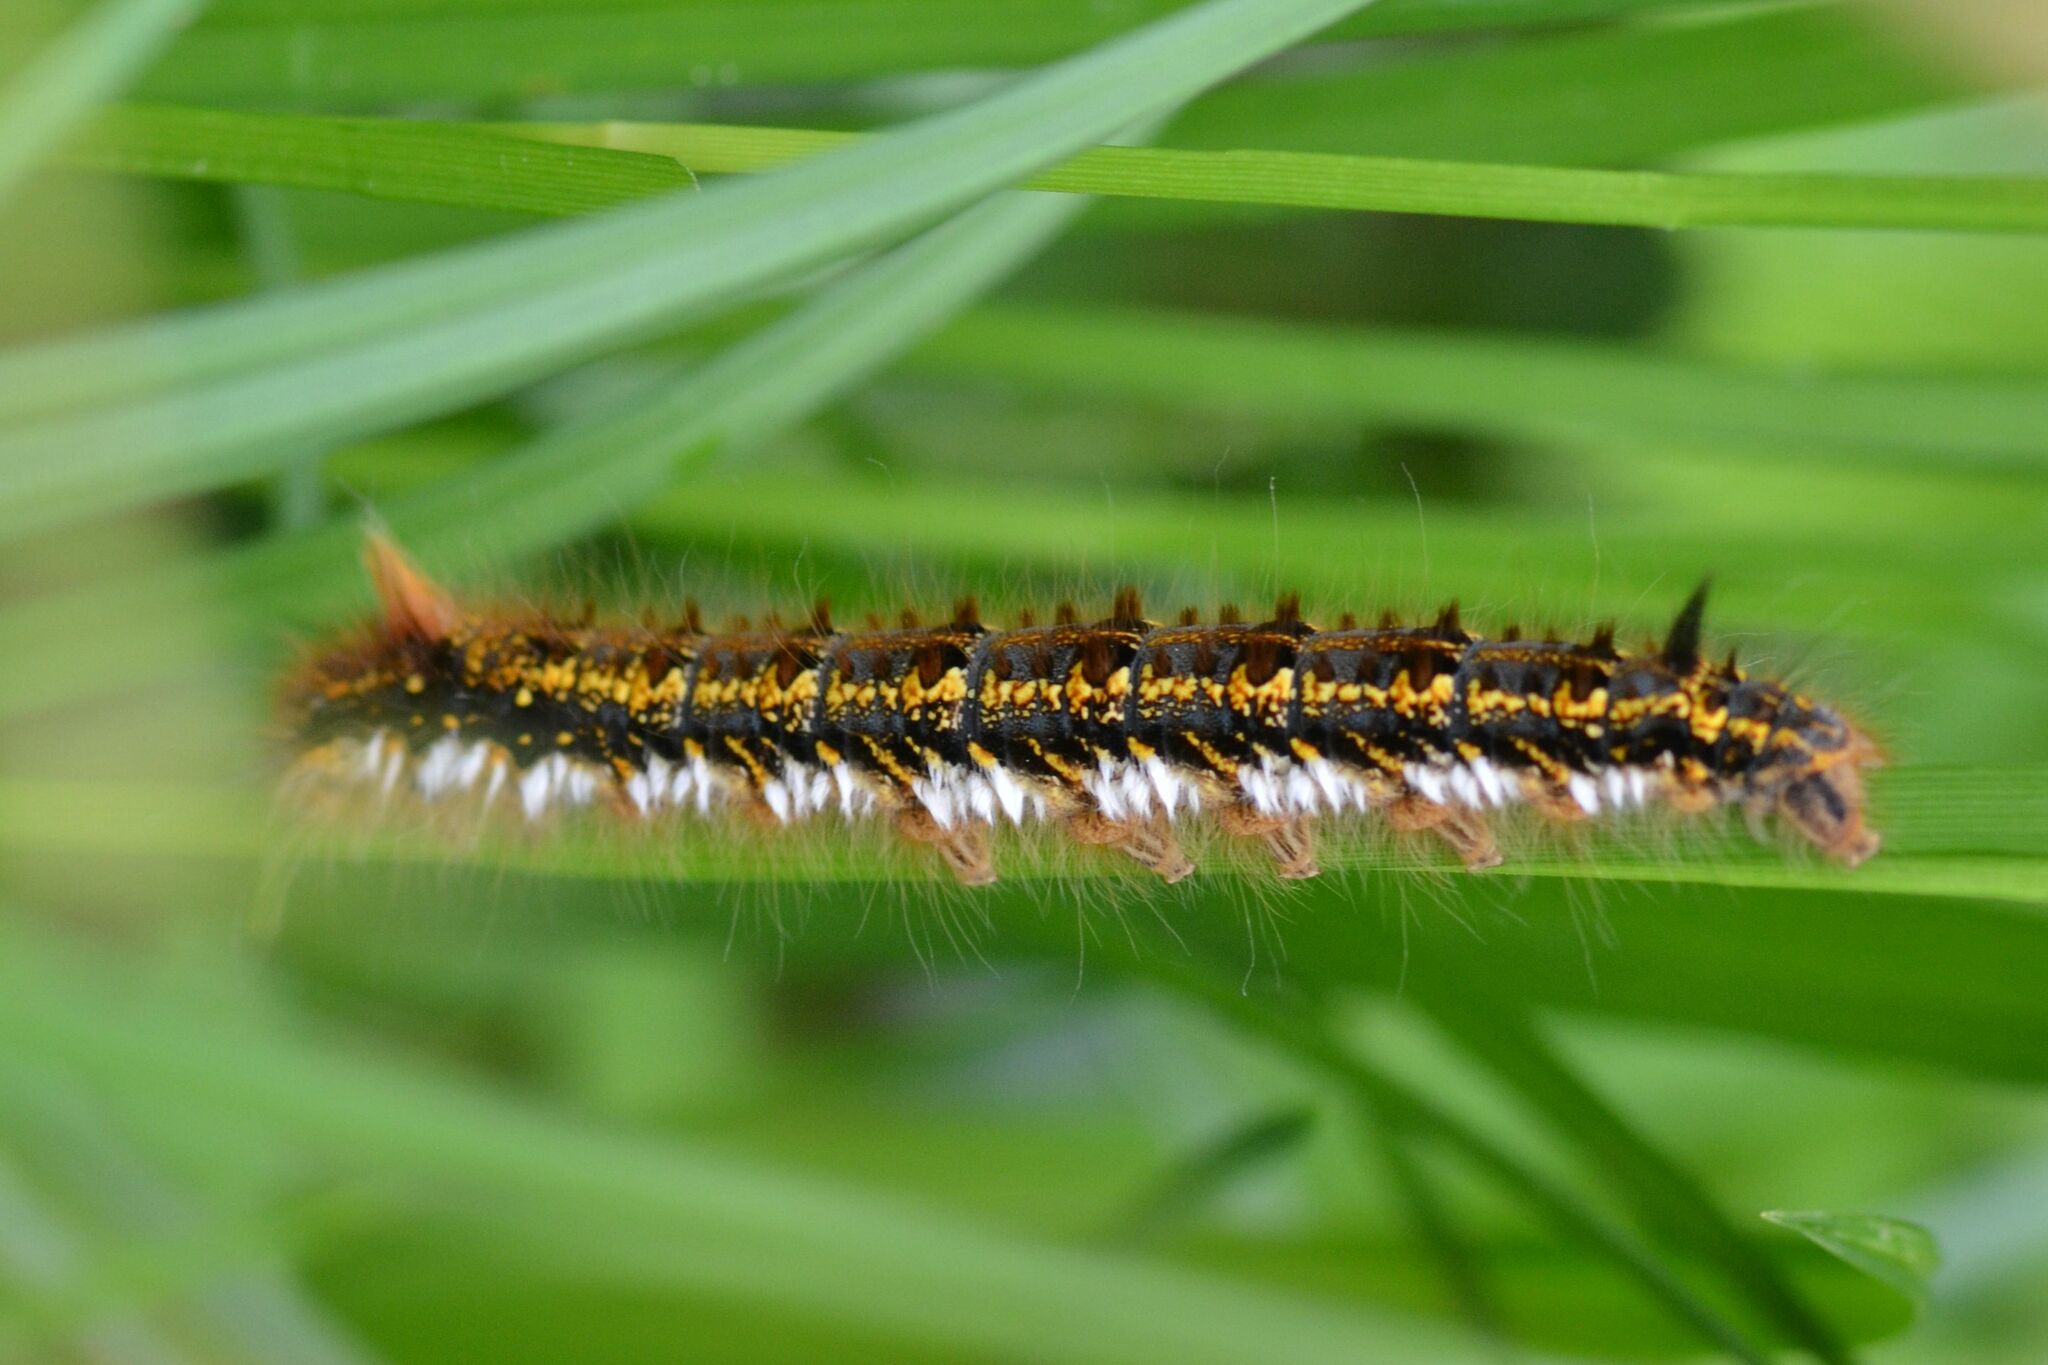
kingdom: Animalia
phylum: Arthropoda
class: Insecta
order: Lepidoptera
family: Lasiocampidae
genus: Euthrix
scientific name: Euthrix potatoria
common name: Drinker
